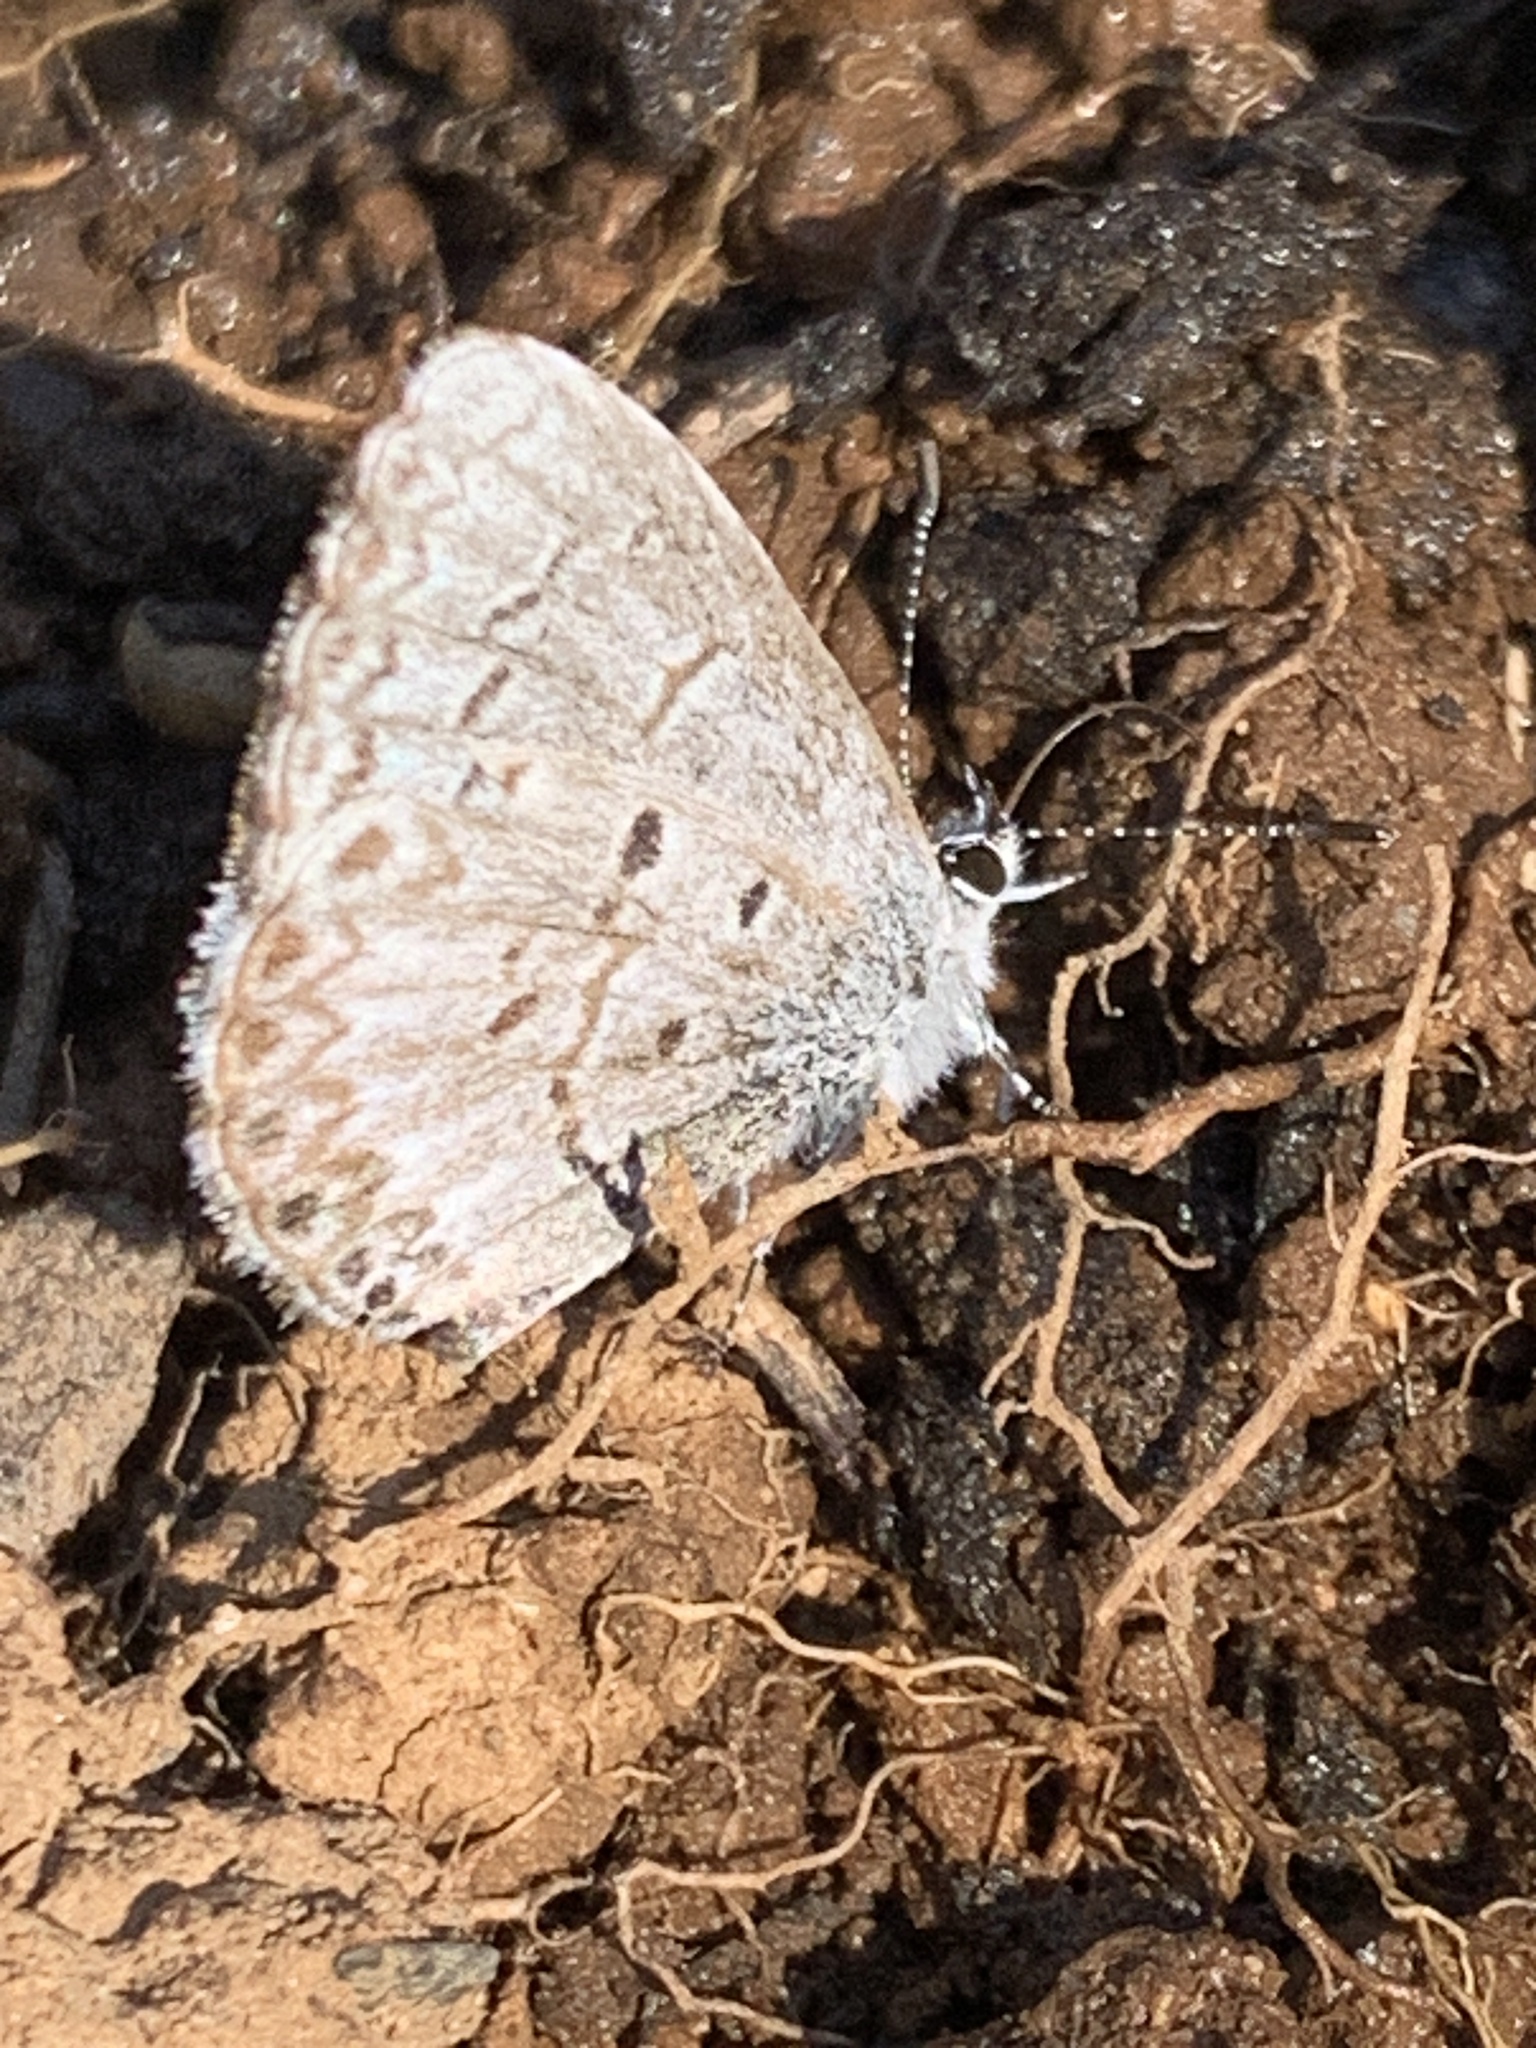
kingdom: Animalia
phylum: Arthropoda
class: Insecta
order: Lepidoptera
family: Lycaenidae
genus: Celastrina
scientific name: Celastrina lucia
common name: Lucia azure
